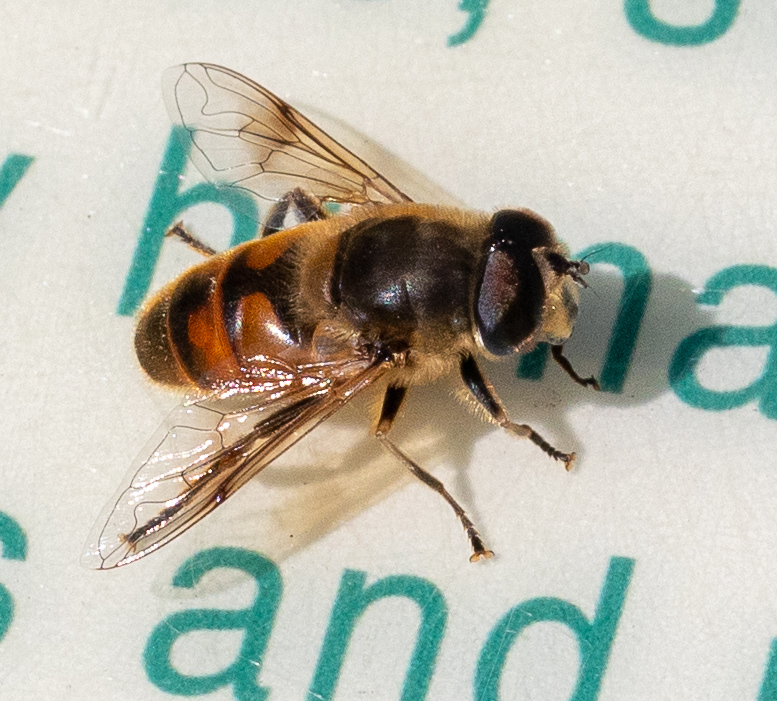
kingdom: Animalia
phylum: Arthropoda
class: Insecta
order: Diptera
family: Syrphidae
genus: Eristalis
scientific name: Eristalis tenax
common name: Drone fly
